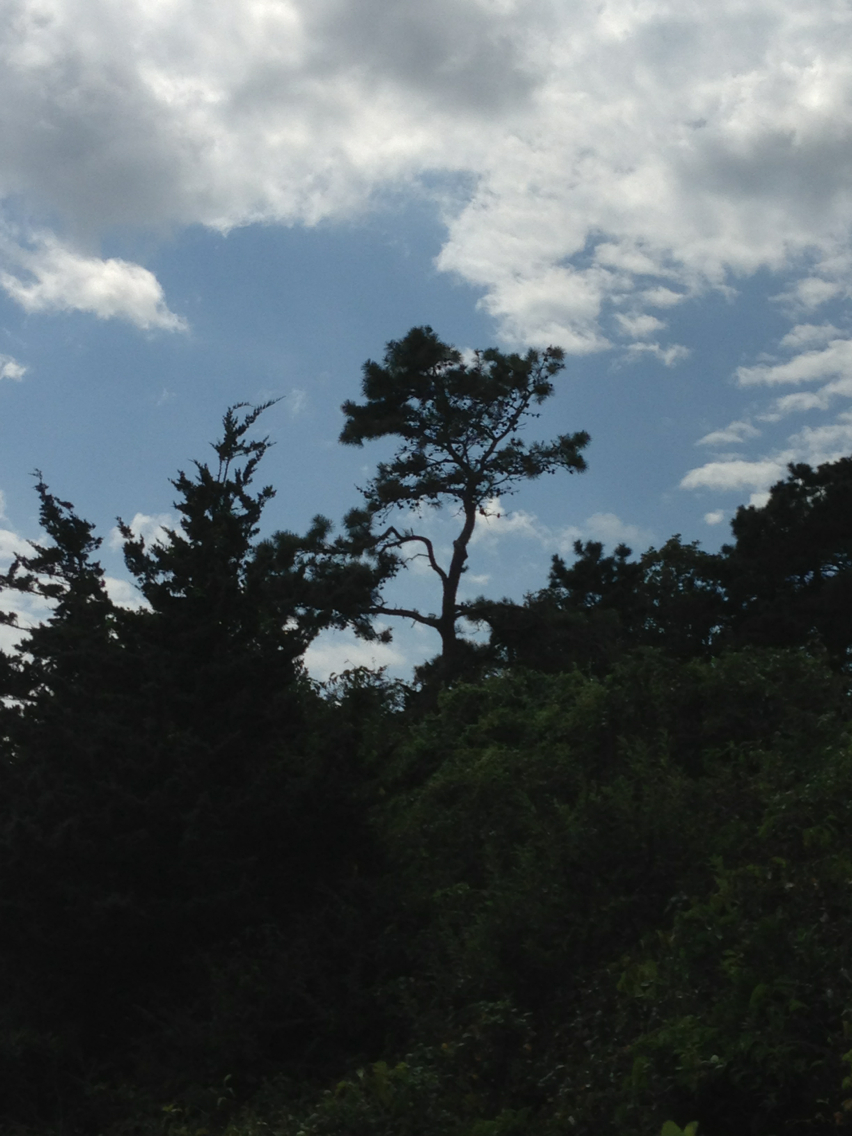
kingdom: Plantae
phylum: Tracheophyta
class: Pinopsida
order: Pinales
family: Pinaceae
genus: Pinus
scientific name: Pinus rigida
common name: Pitch pine
